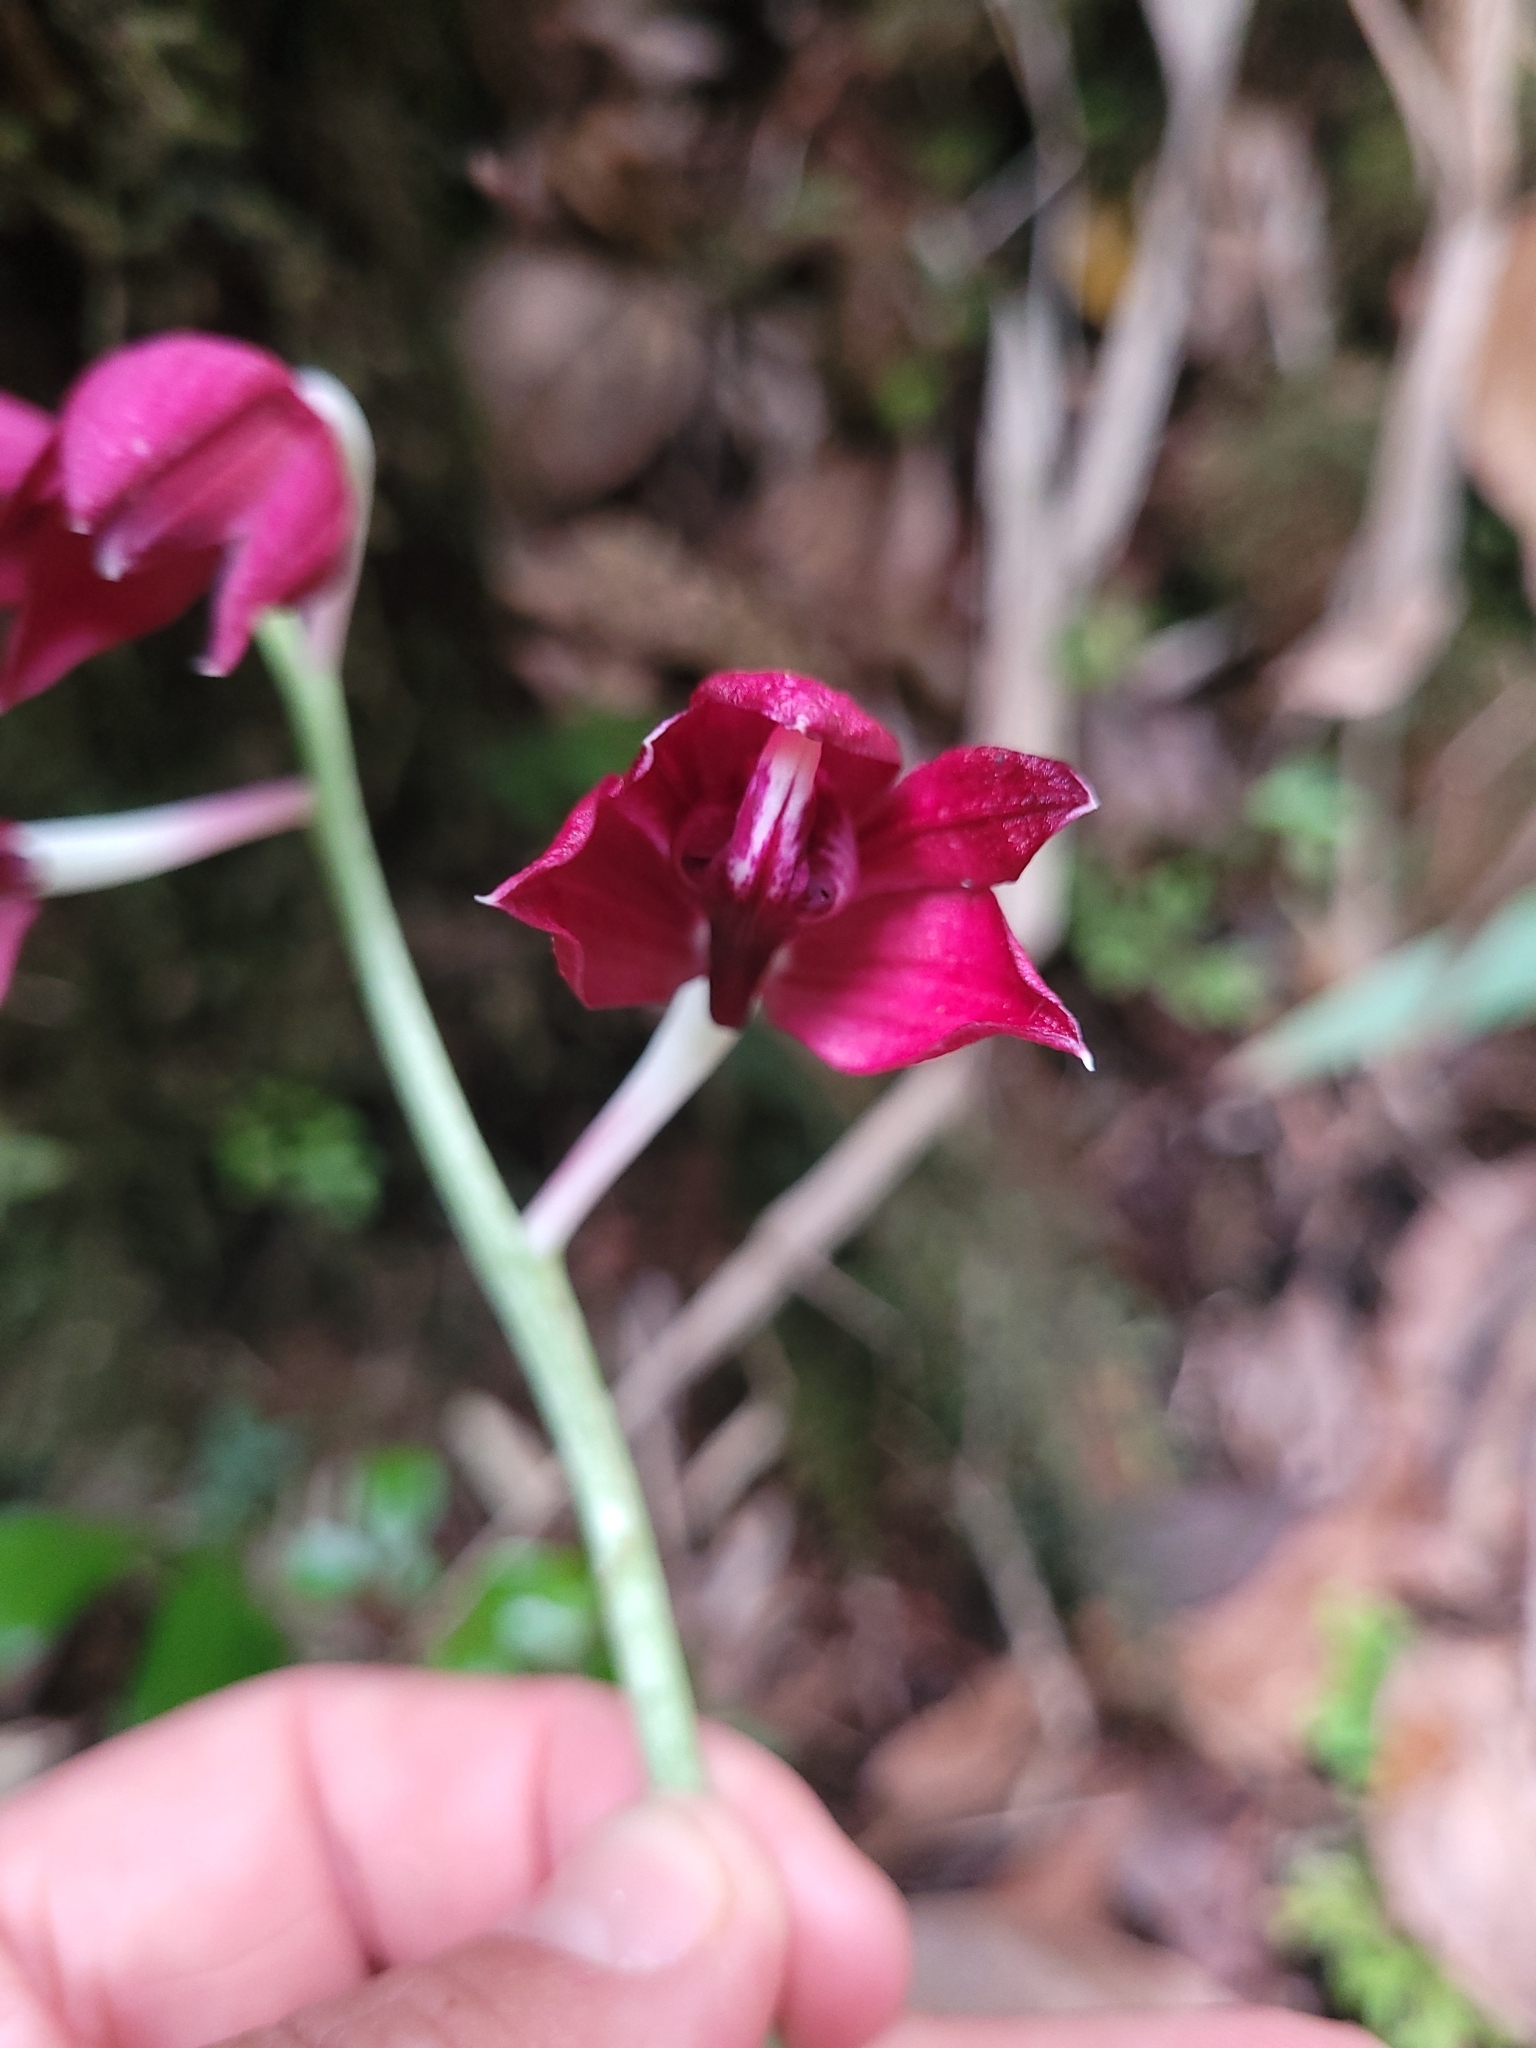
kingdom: Plantae
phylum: Tracheophyta
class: Liliopsida
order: Asparagales
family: Orchidaceae
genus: Calanthe
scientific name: Calanthe pulchella
